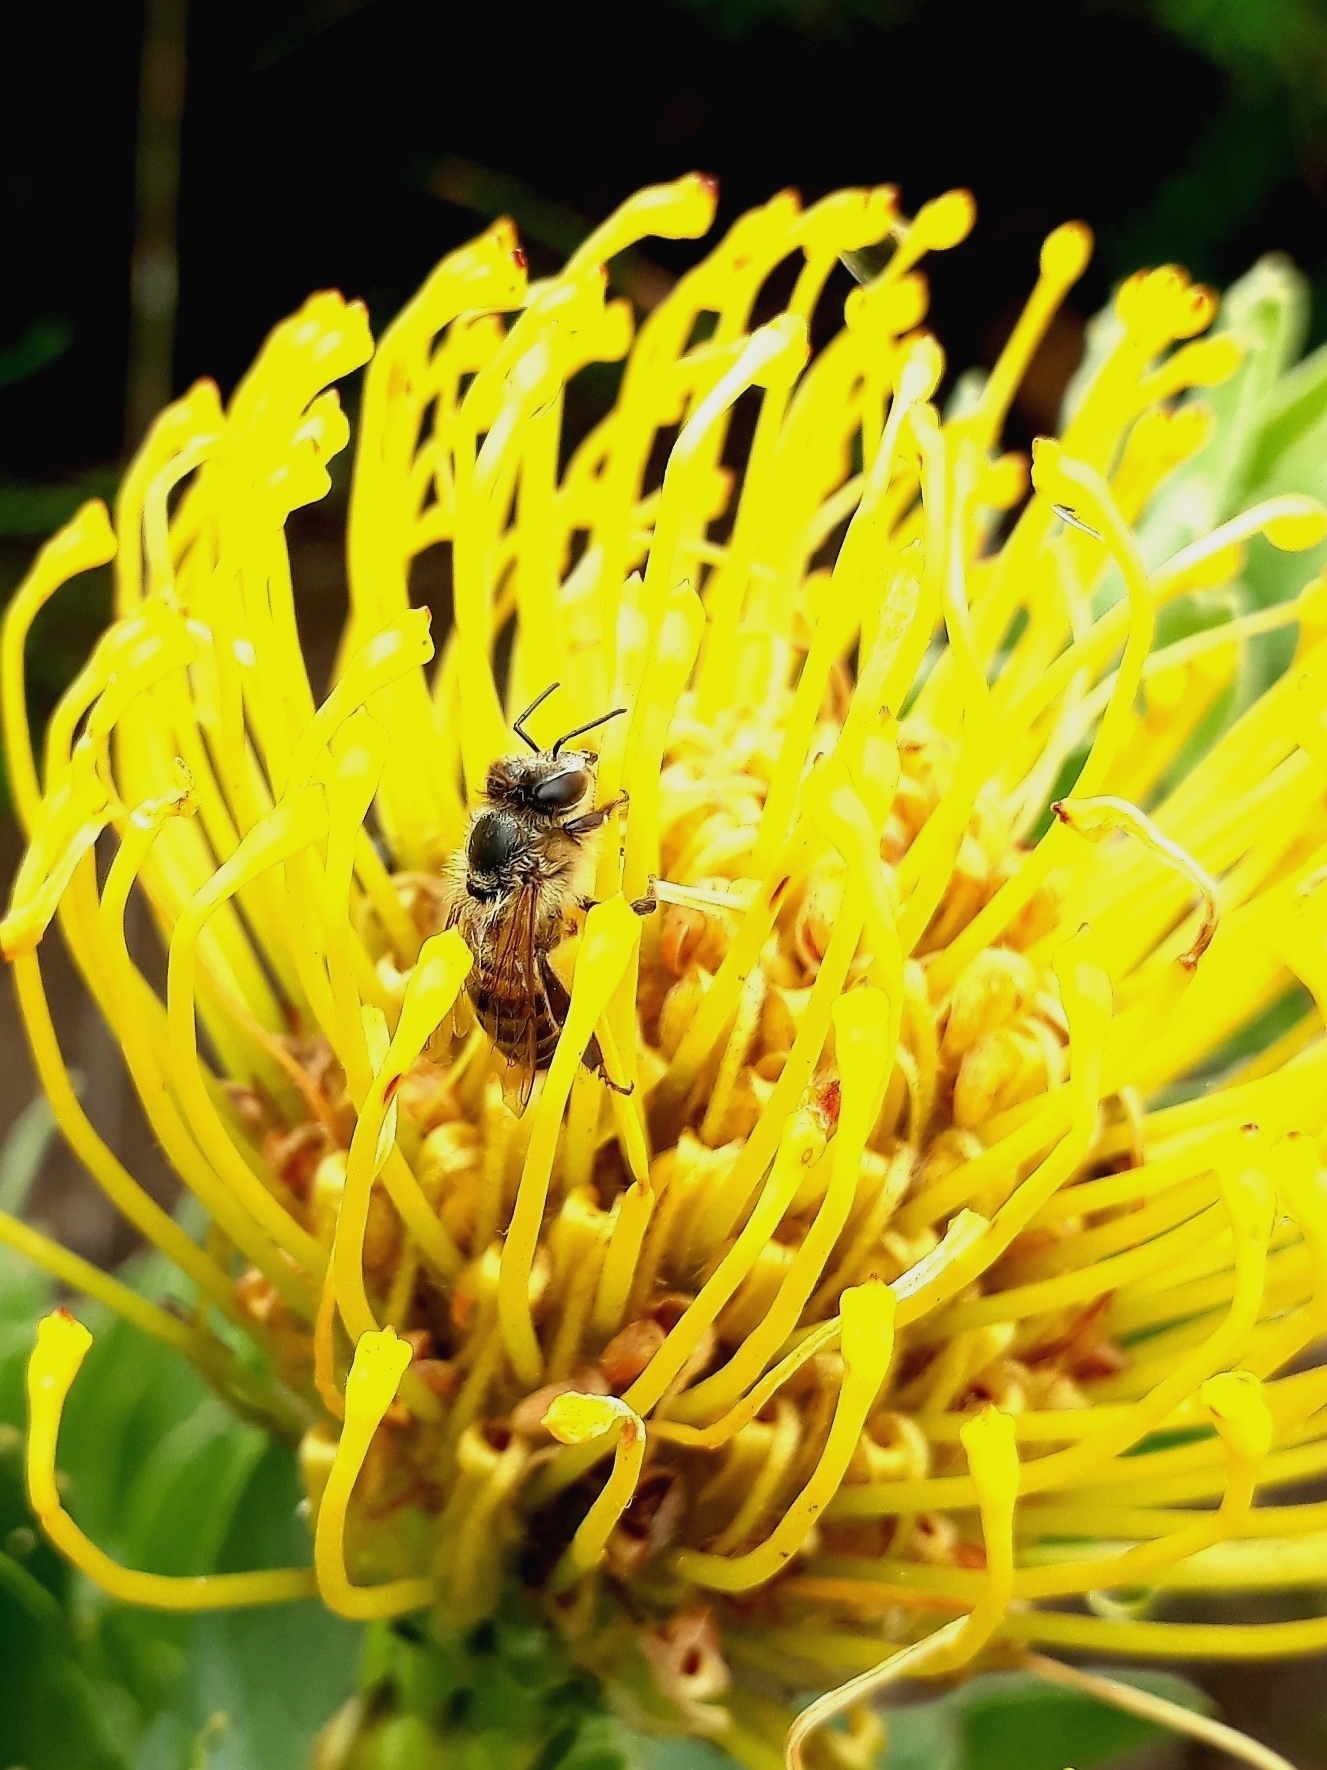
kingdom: Animalia
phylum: Arthropoda
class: Insecta
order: Hymenoptera
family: Apidae
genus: Apis
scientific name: Apis mellifera
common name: Honey bee
